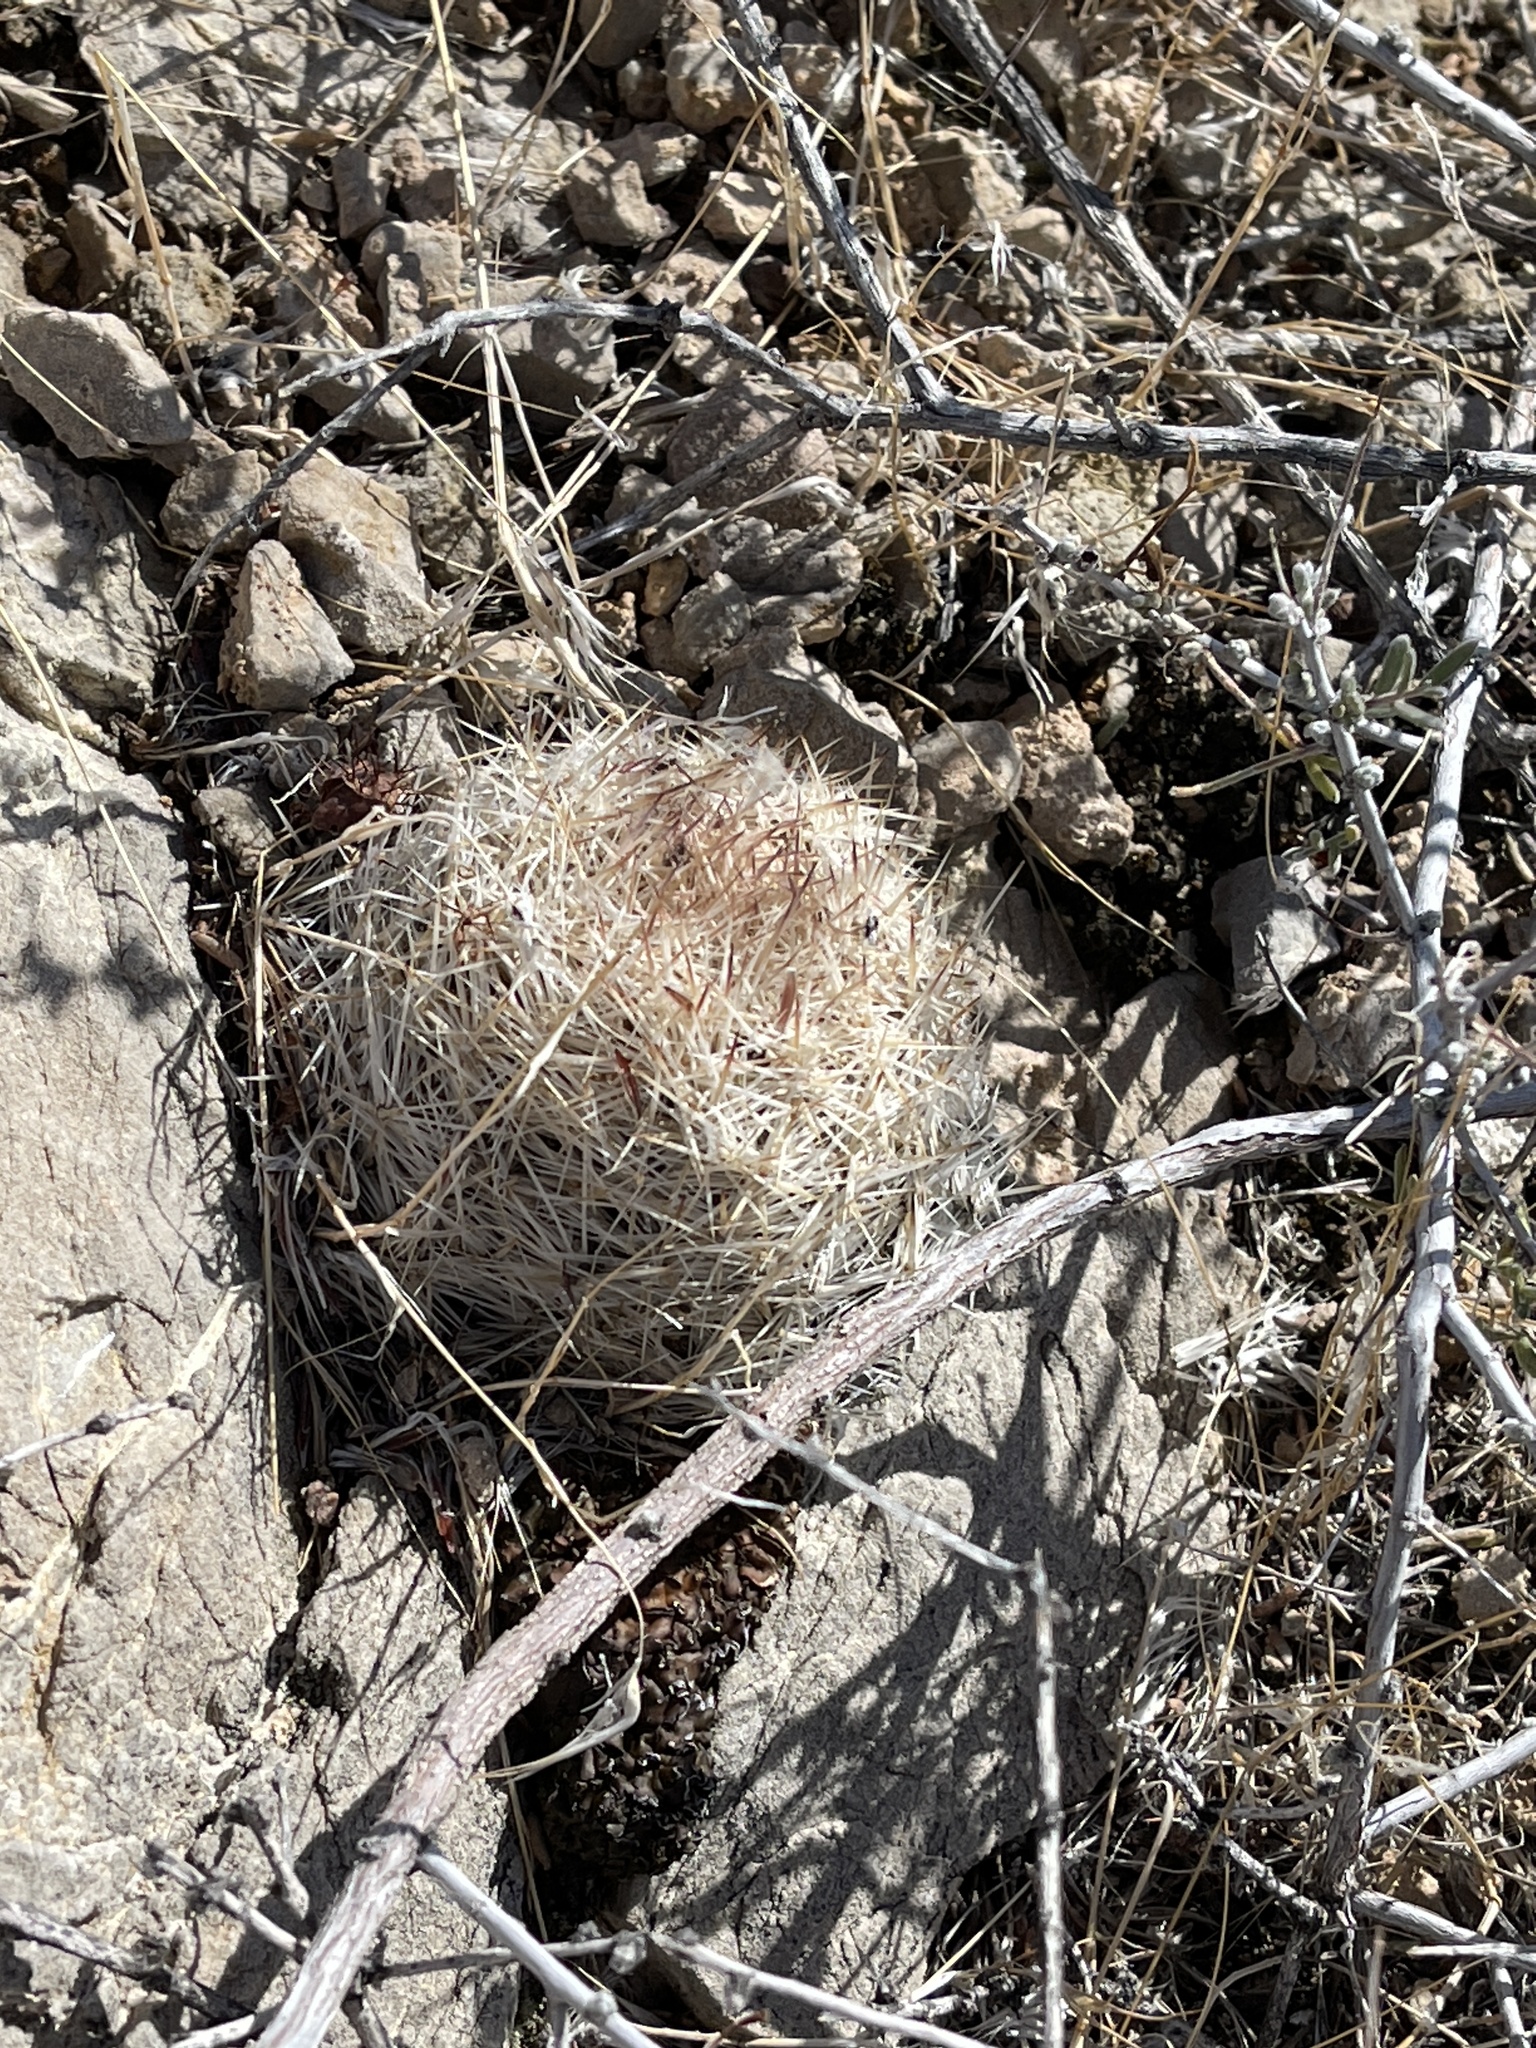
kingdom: Plantae
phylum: Tracheophyta
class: Magnoliopsida
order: Caryophyllales
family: Cactaceae
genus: Pelecyphora
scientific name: Pelecyphora dasyacantha
